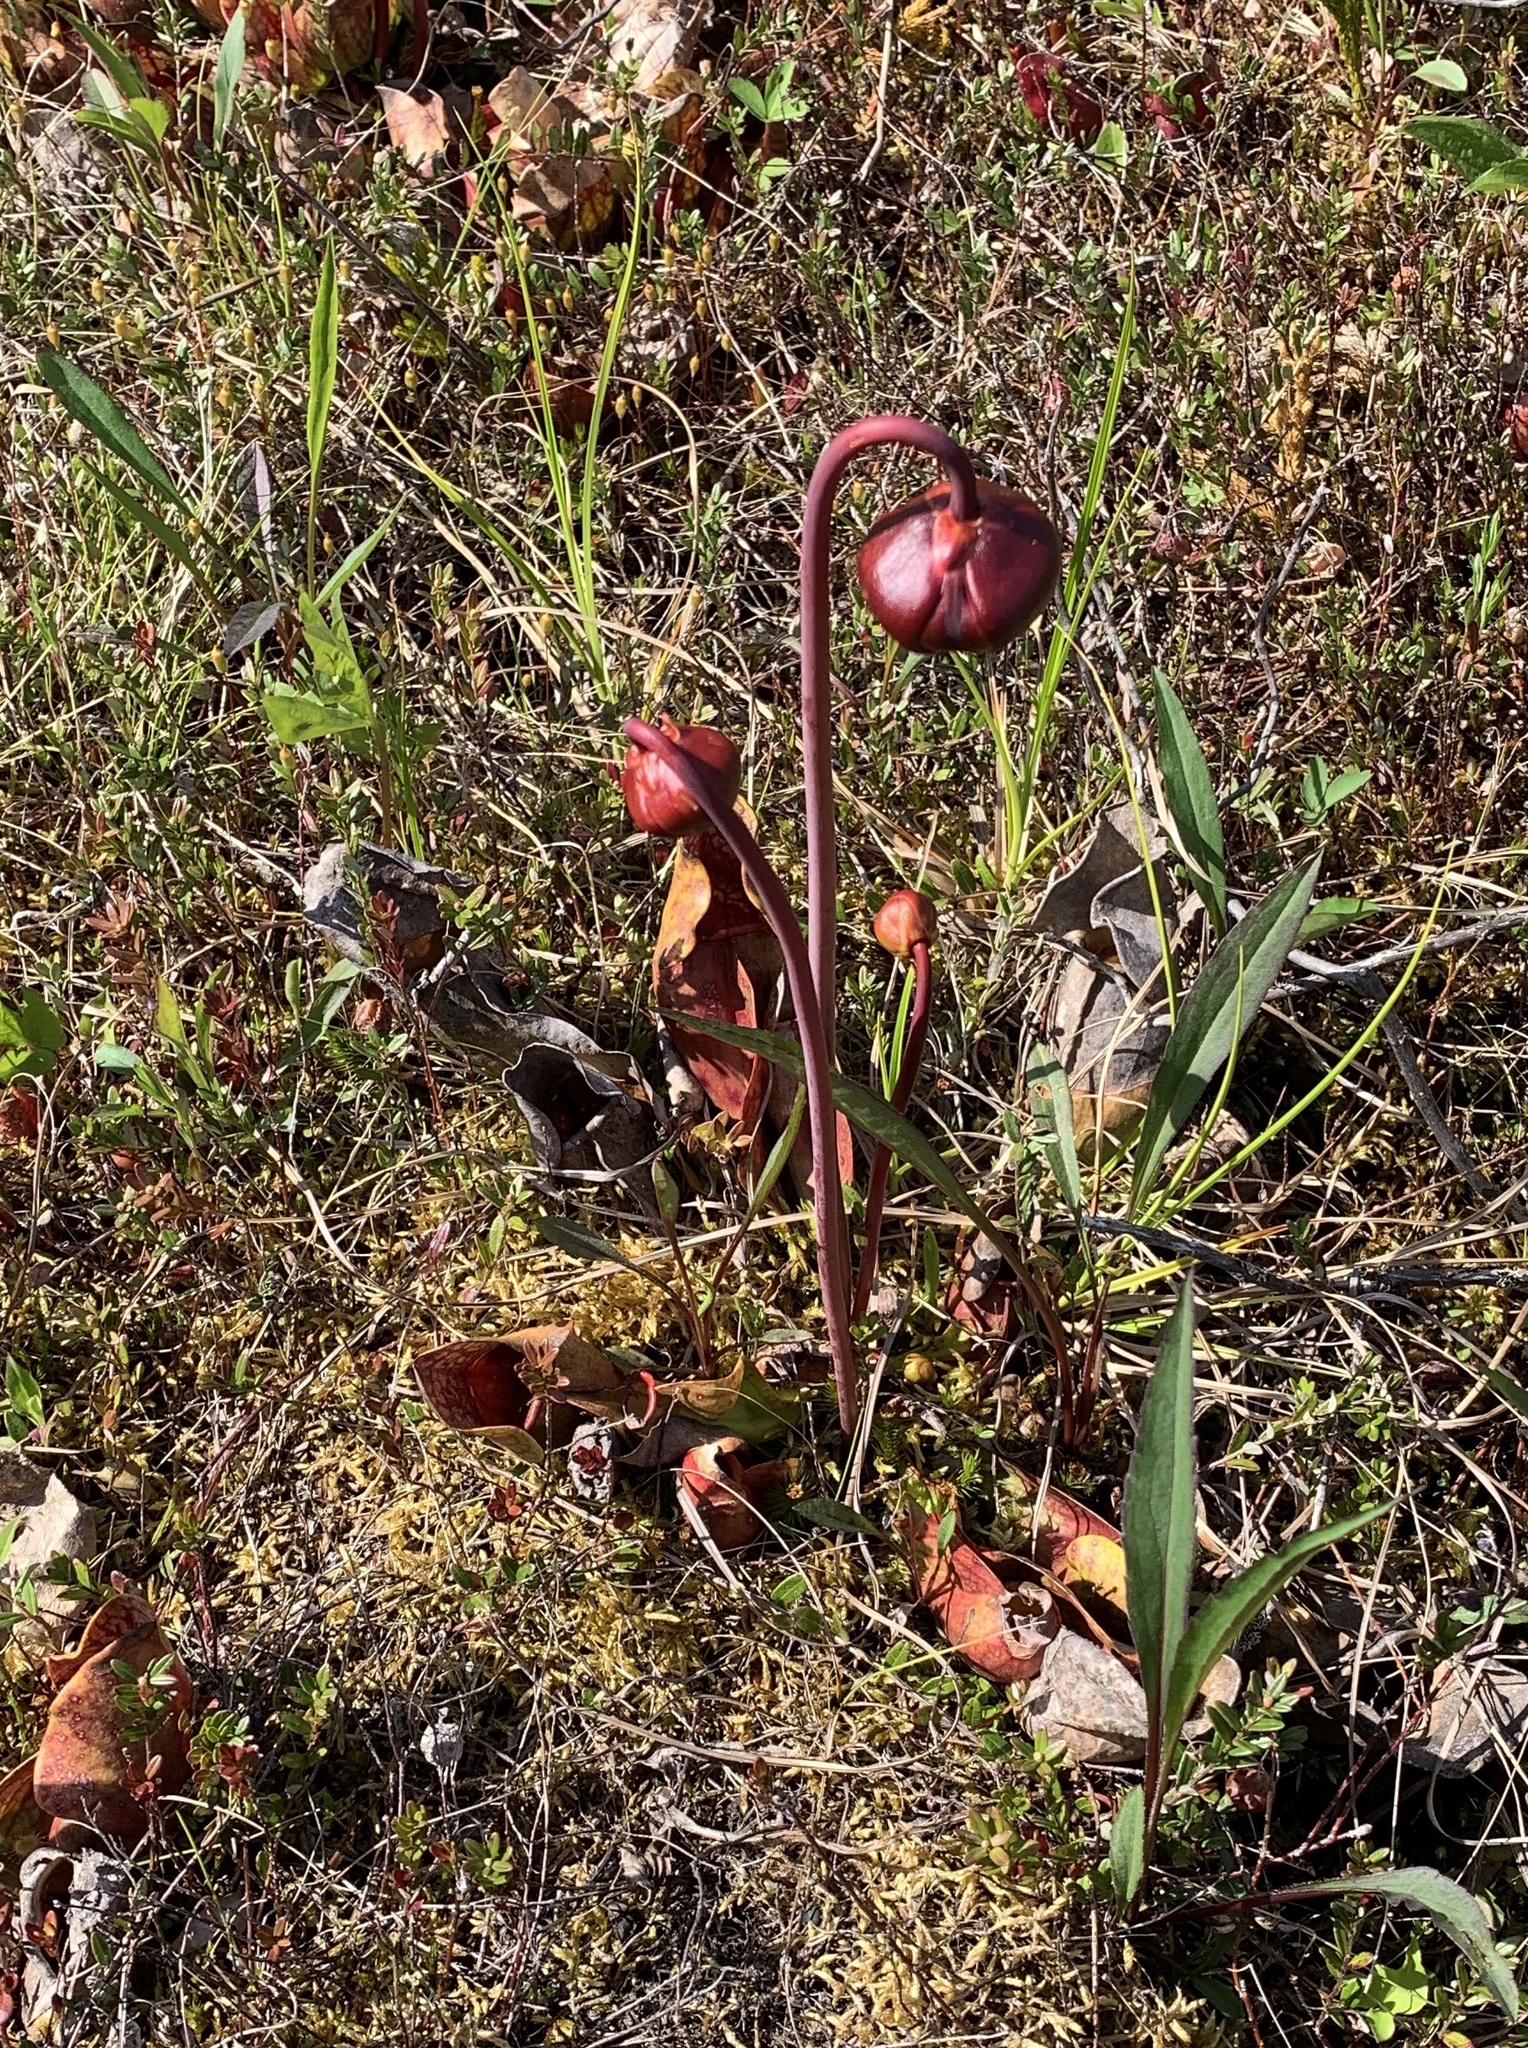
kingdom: Plantae
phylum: Tracheophyta
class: Magnoliopsida
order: Ericales
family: Sarraceniaceae
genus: Sarracenia
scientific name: Sarracenia purpurea
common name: Pitcherplant
